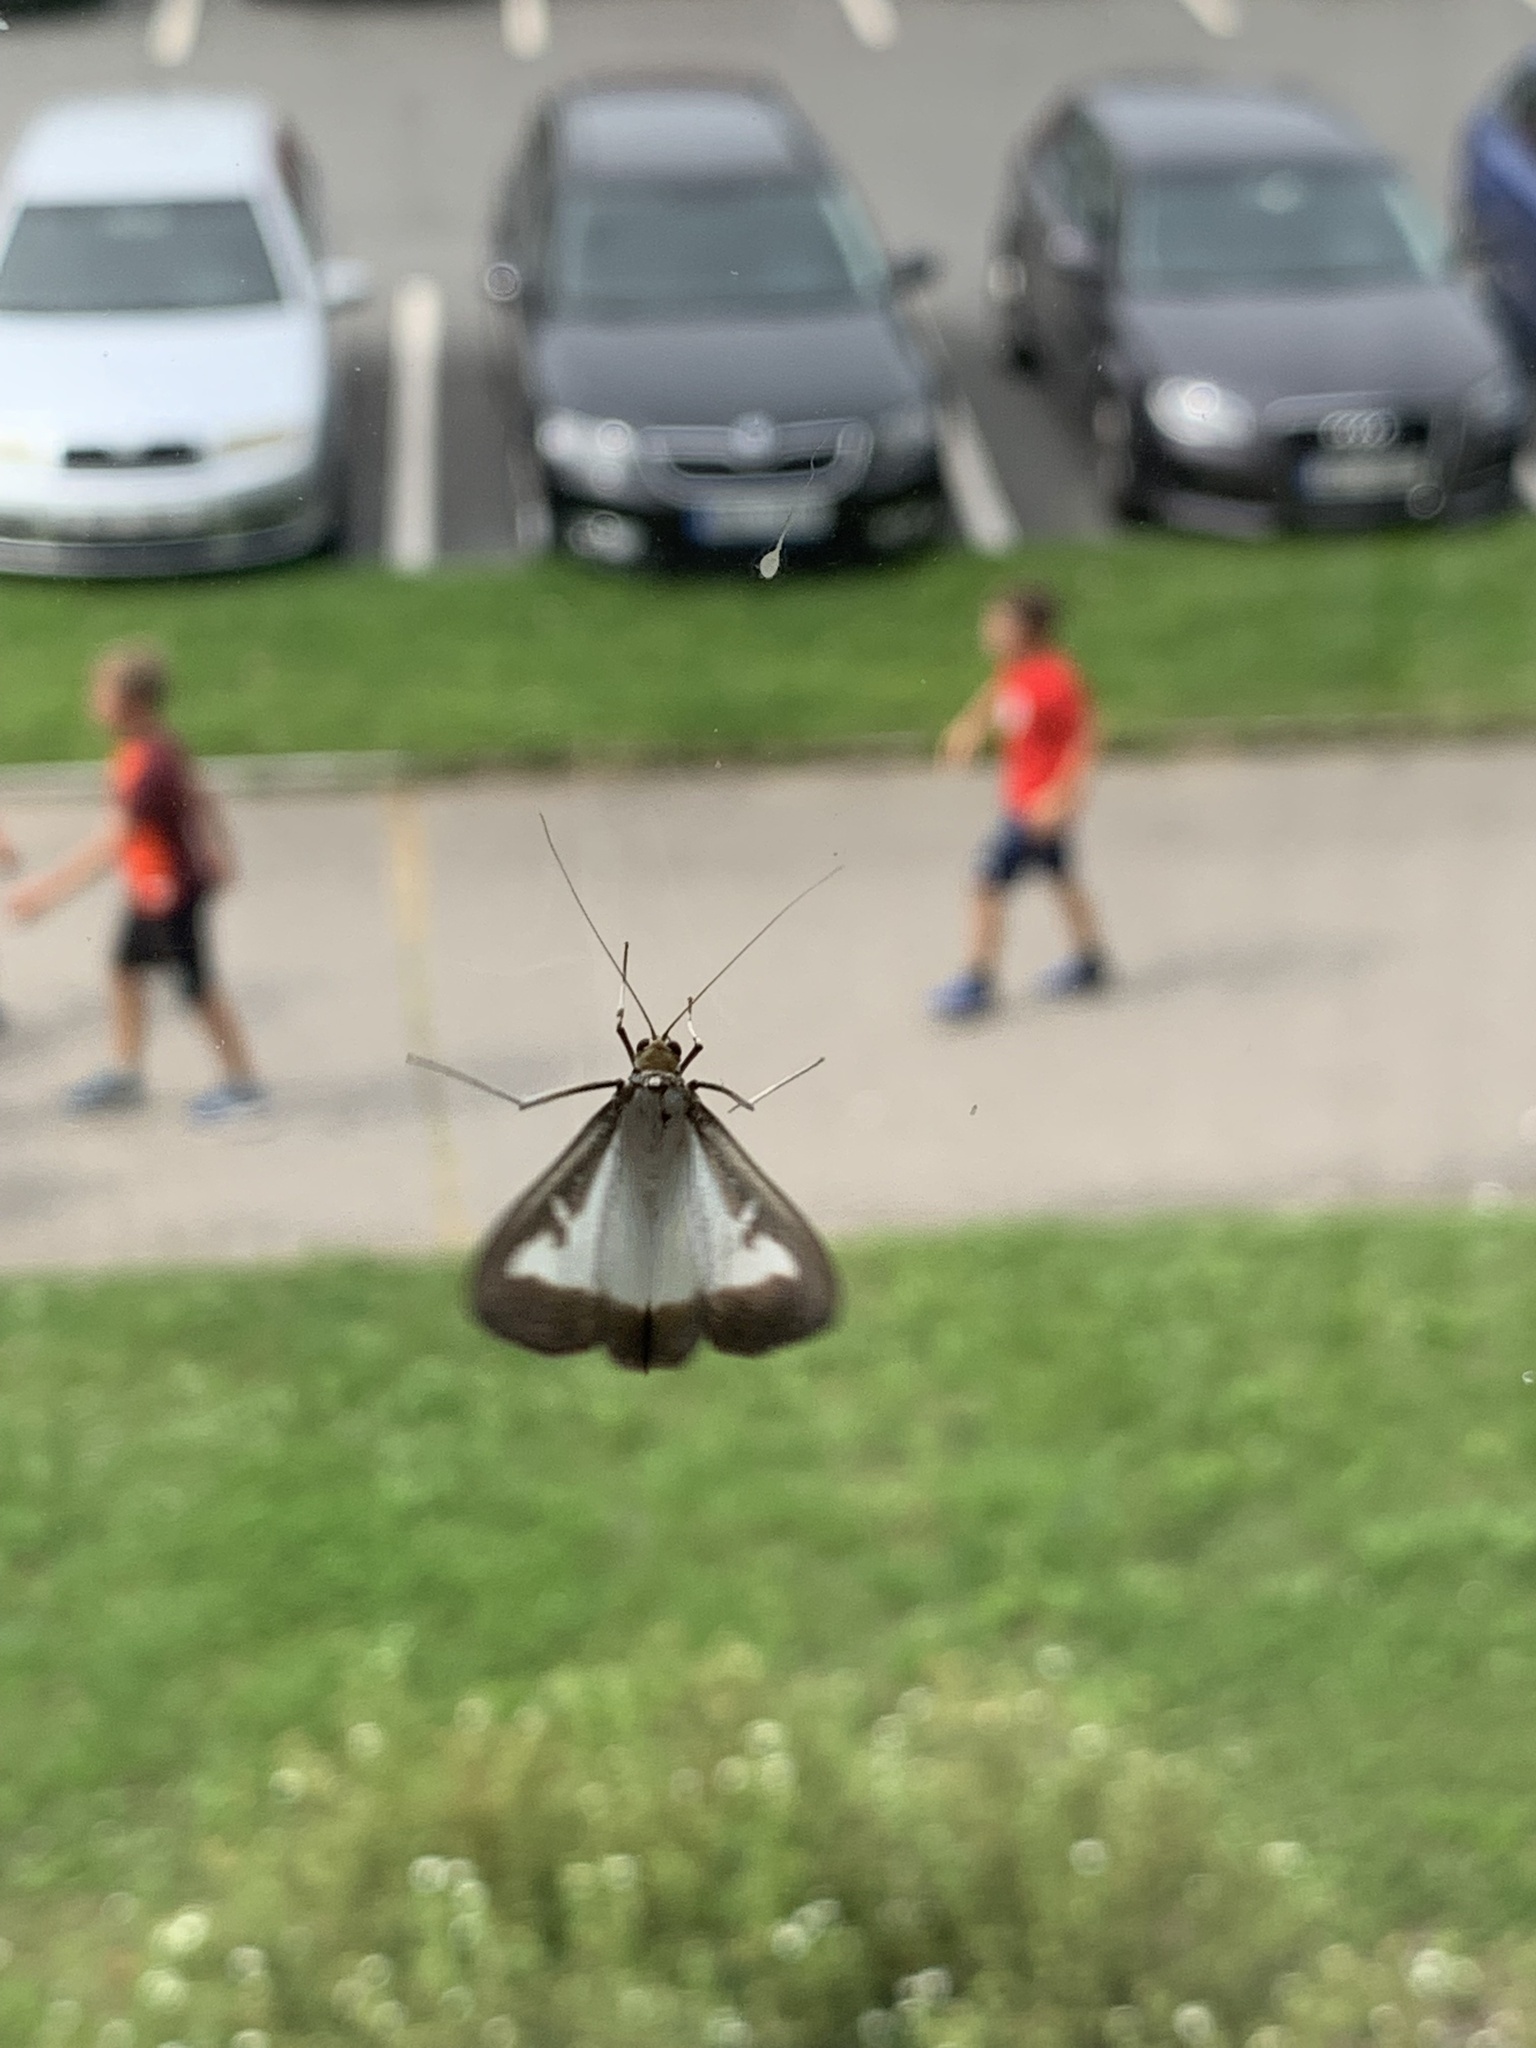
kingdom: Animalia
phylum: Arthropoda
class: Insecta
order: Lepidoptera
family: Crambidae
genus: Cydalima
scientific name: Cydalima perspectalis
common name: Box tree moth
